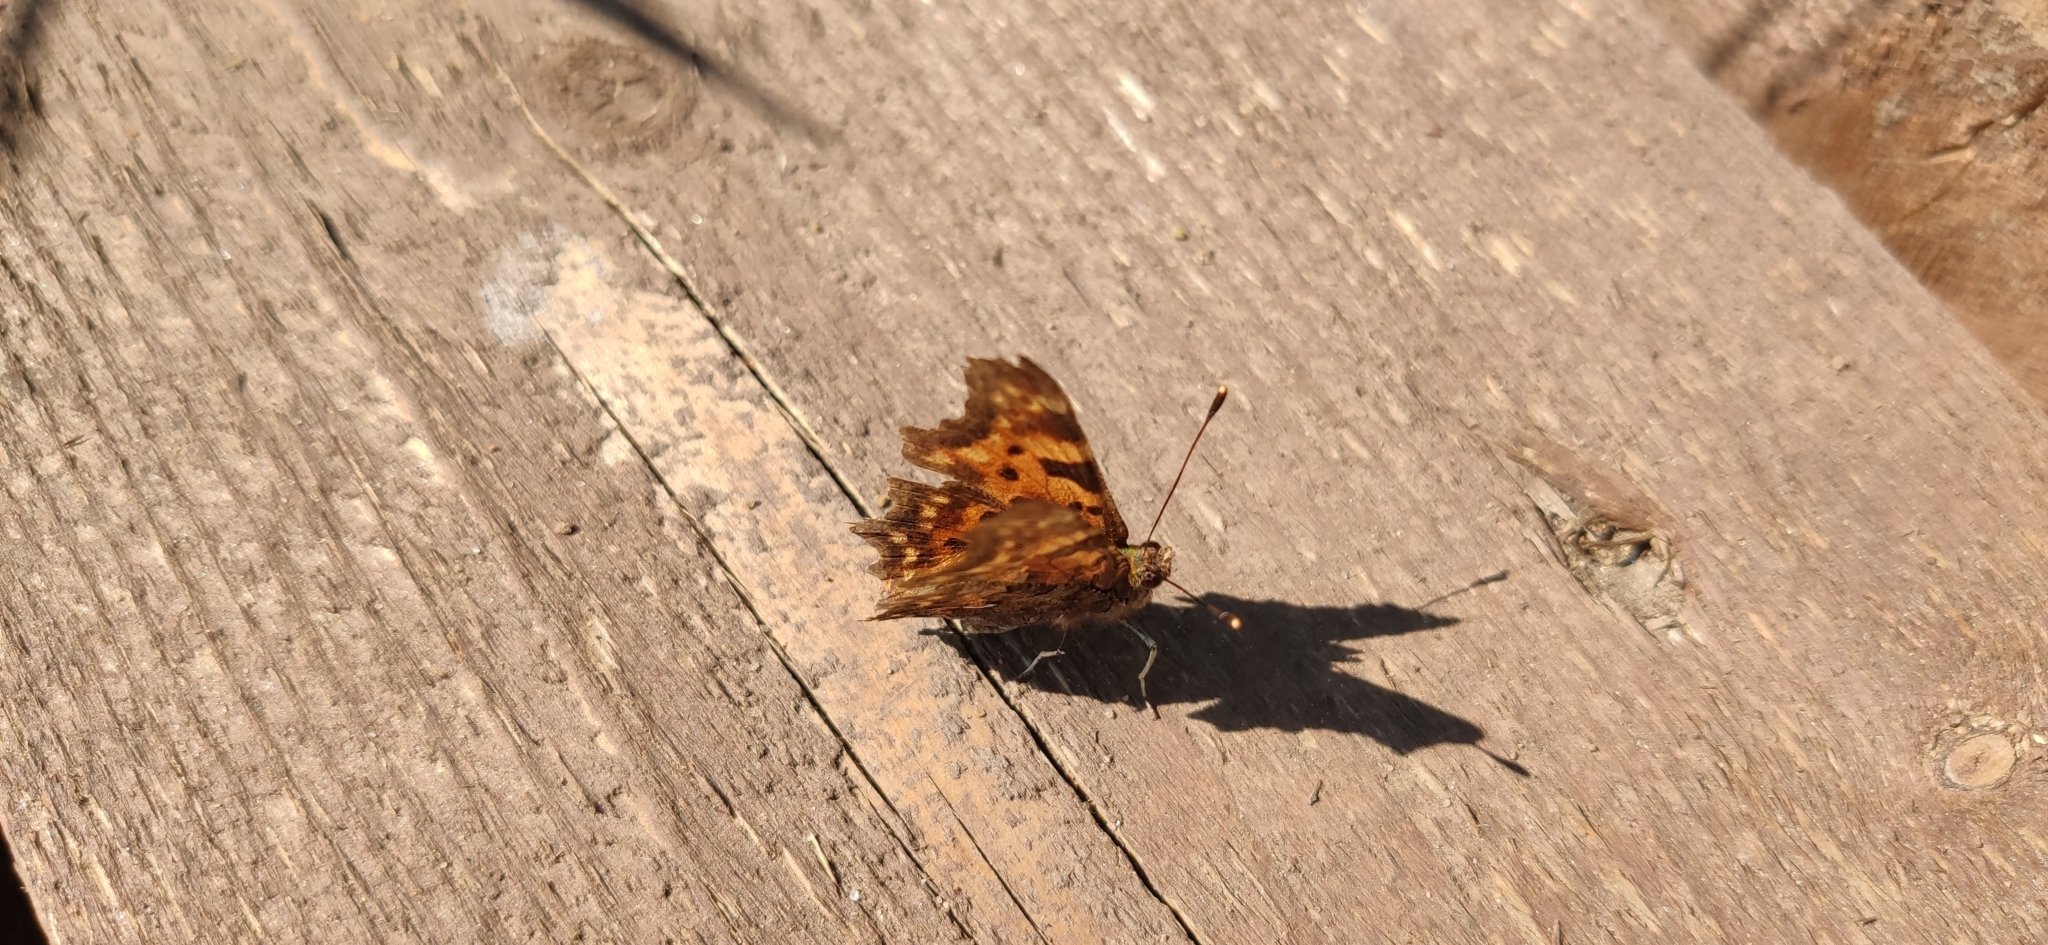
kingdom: Animalia
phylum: Arthropoda
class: Insecta
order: Lepidoptera
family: Nymphalidae
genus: Polygonia
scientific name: Polygonia c-album
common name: Comma
